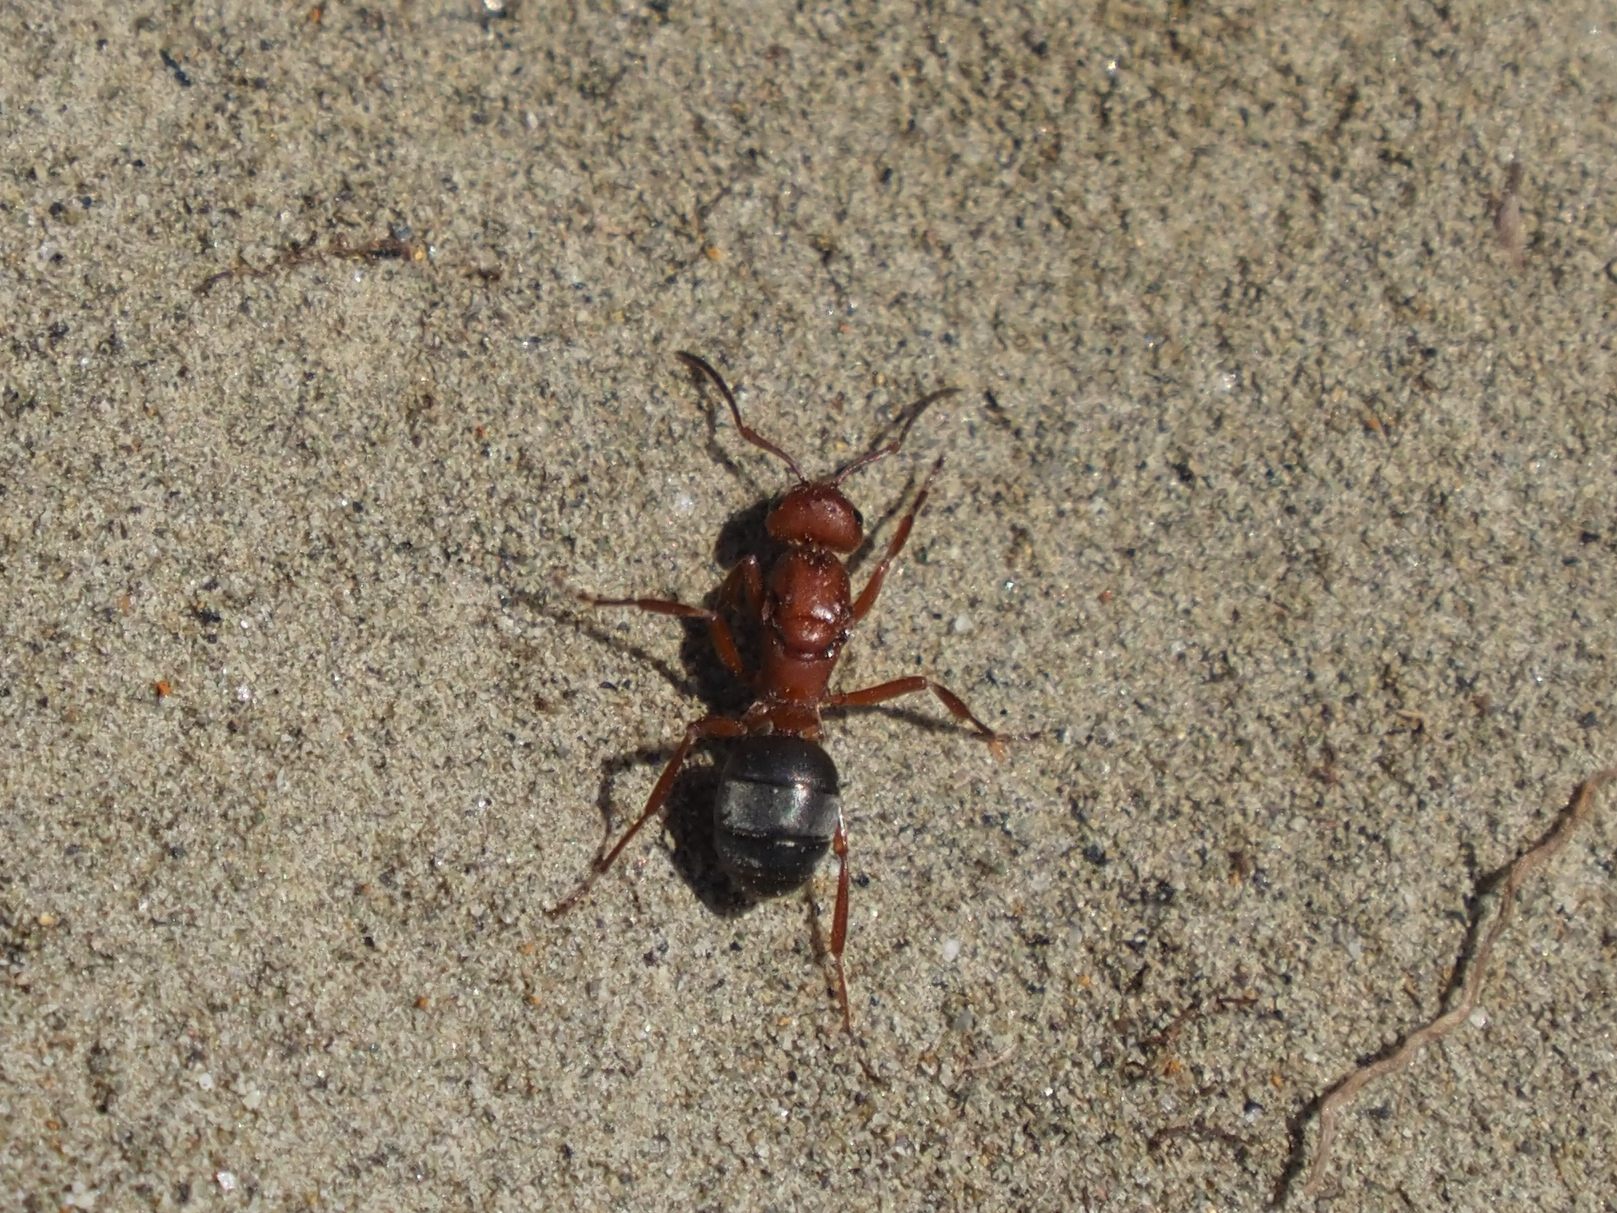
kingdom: Animalia
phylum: Arthropoda
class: Insecta
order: Hymenoptera
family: Formicidae
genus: Formica
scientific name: Formica aserva
